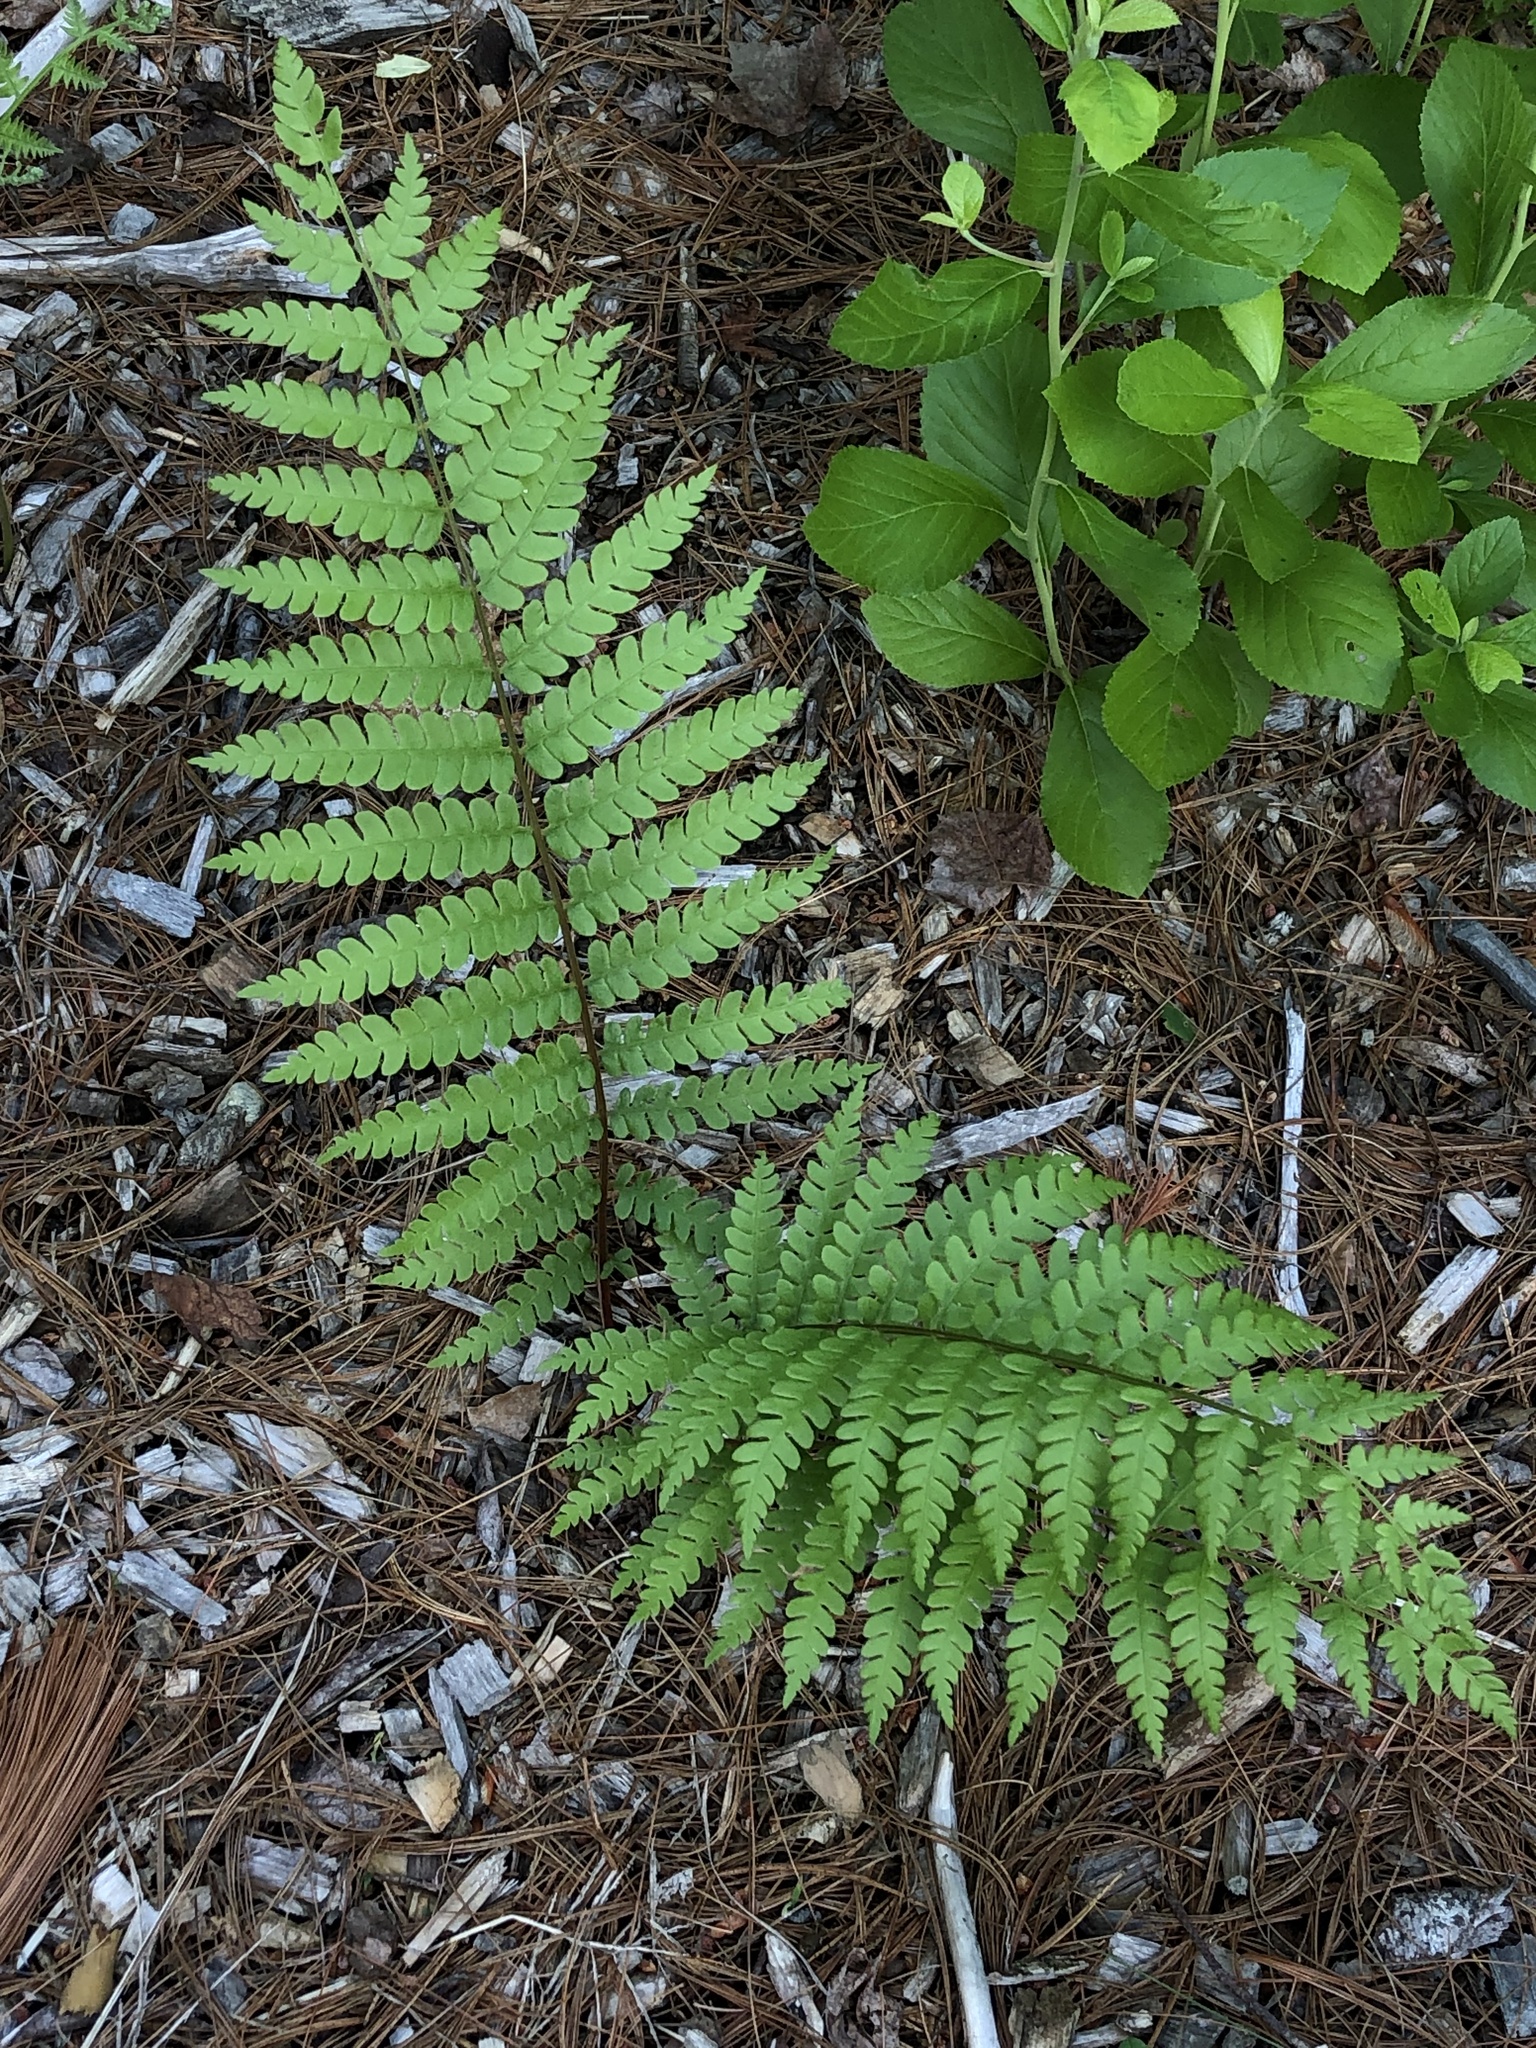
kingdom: Plantae
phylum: Tracheophyta
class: Polypodiopsida
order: Osmundales
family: Osmundaceae
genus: Osmundastrum
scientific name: Osmundastrum cinnamomeum
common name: Cinnamon fern
